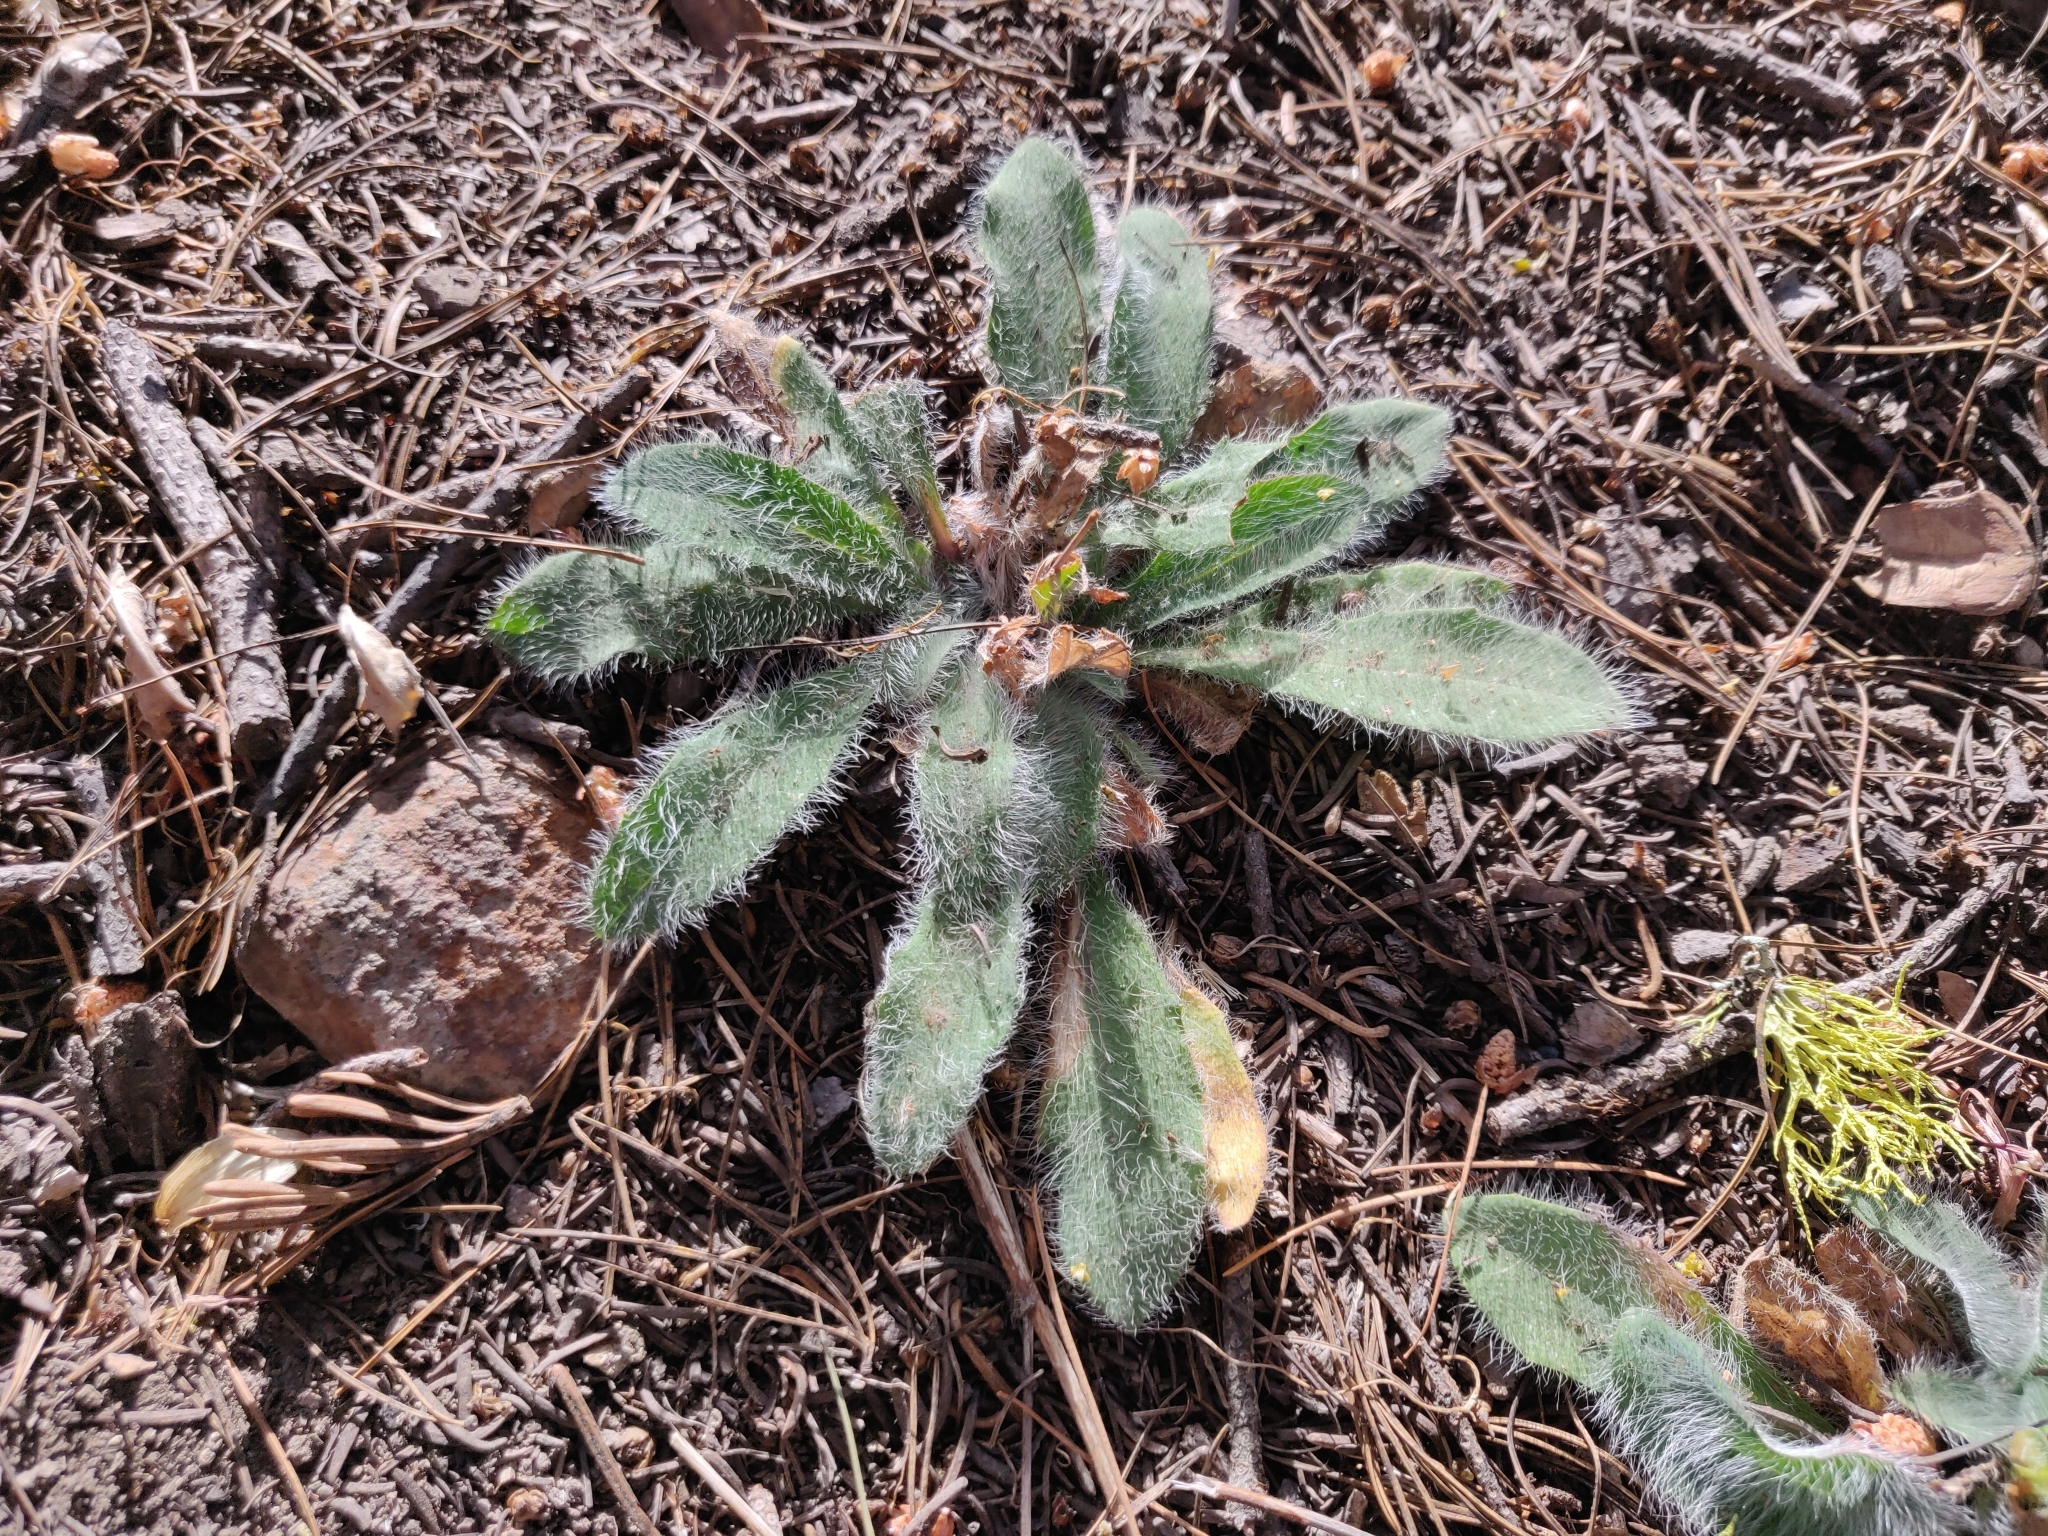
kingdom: Plantae
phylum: Tracheophyta
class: Magnoliopsida
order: Asterales
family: Asteraceae
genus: Hieracium
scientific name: Hieracium albiflorum
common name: White hawkweed
